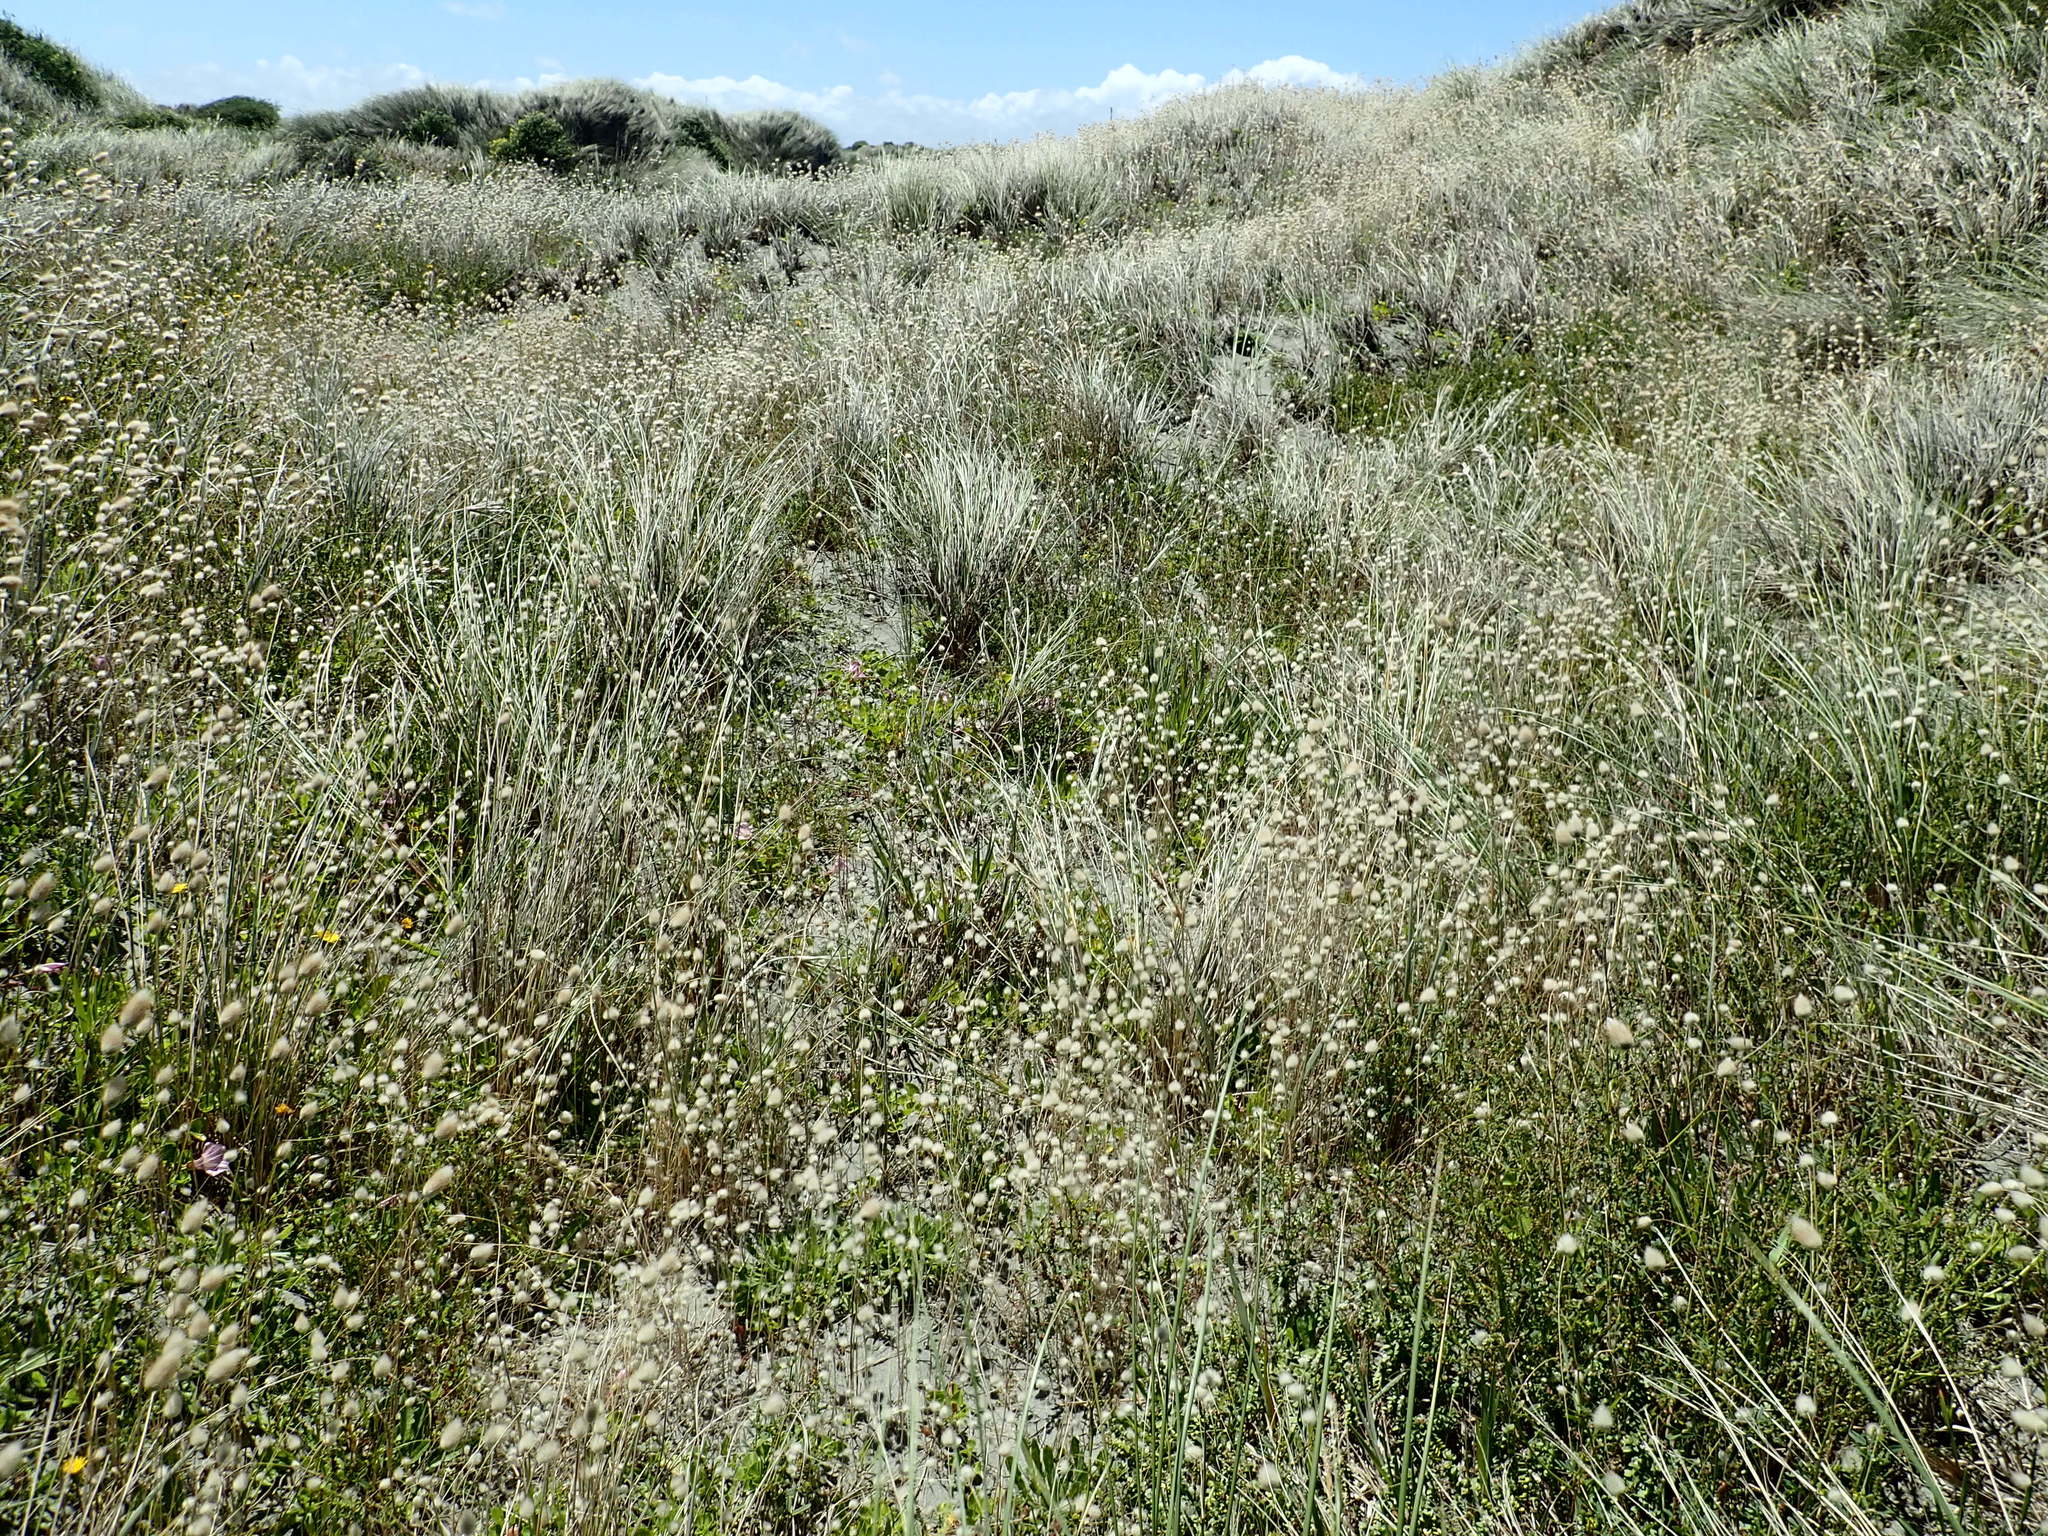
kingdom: Plantae
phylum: Tracheophyta
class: Liliopsida
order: Poales
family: Poaceae
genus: Lagurus
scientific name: Lagurus ovatus
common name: Hare's-tail
